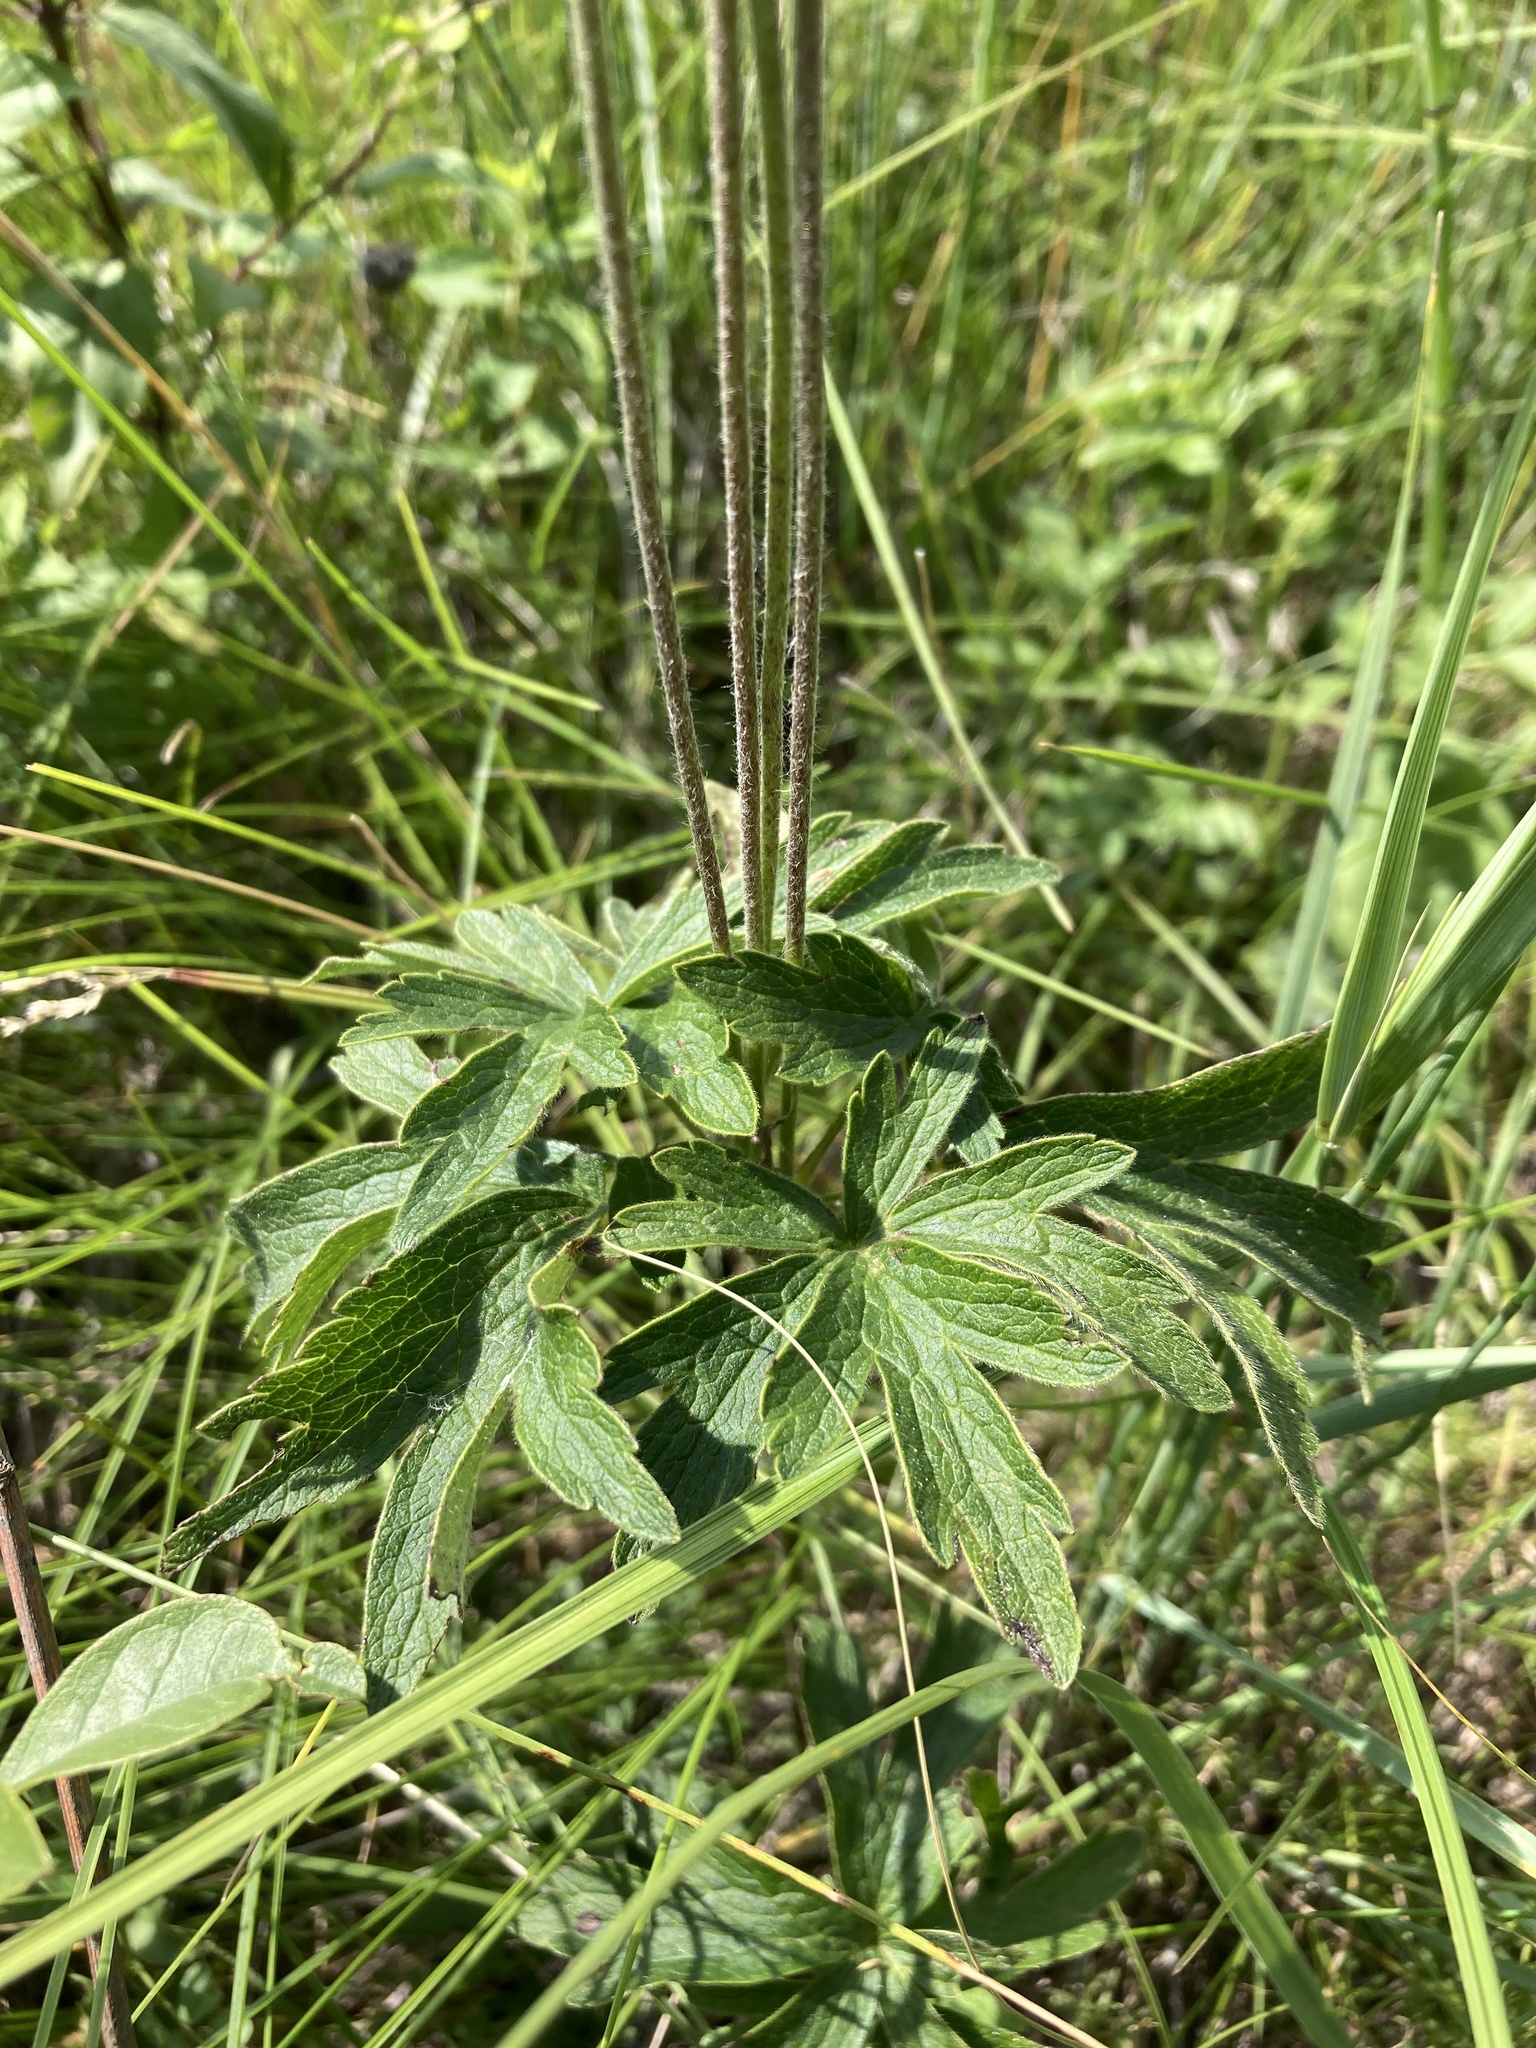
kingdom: Plantae
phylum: Tracheophyta
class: Magnoliopsida
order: Ranunculales
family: Ranunculaceae
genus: Anemone
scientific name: Anemone cylindrica
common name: Candle anemone
